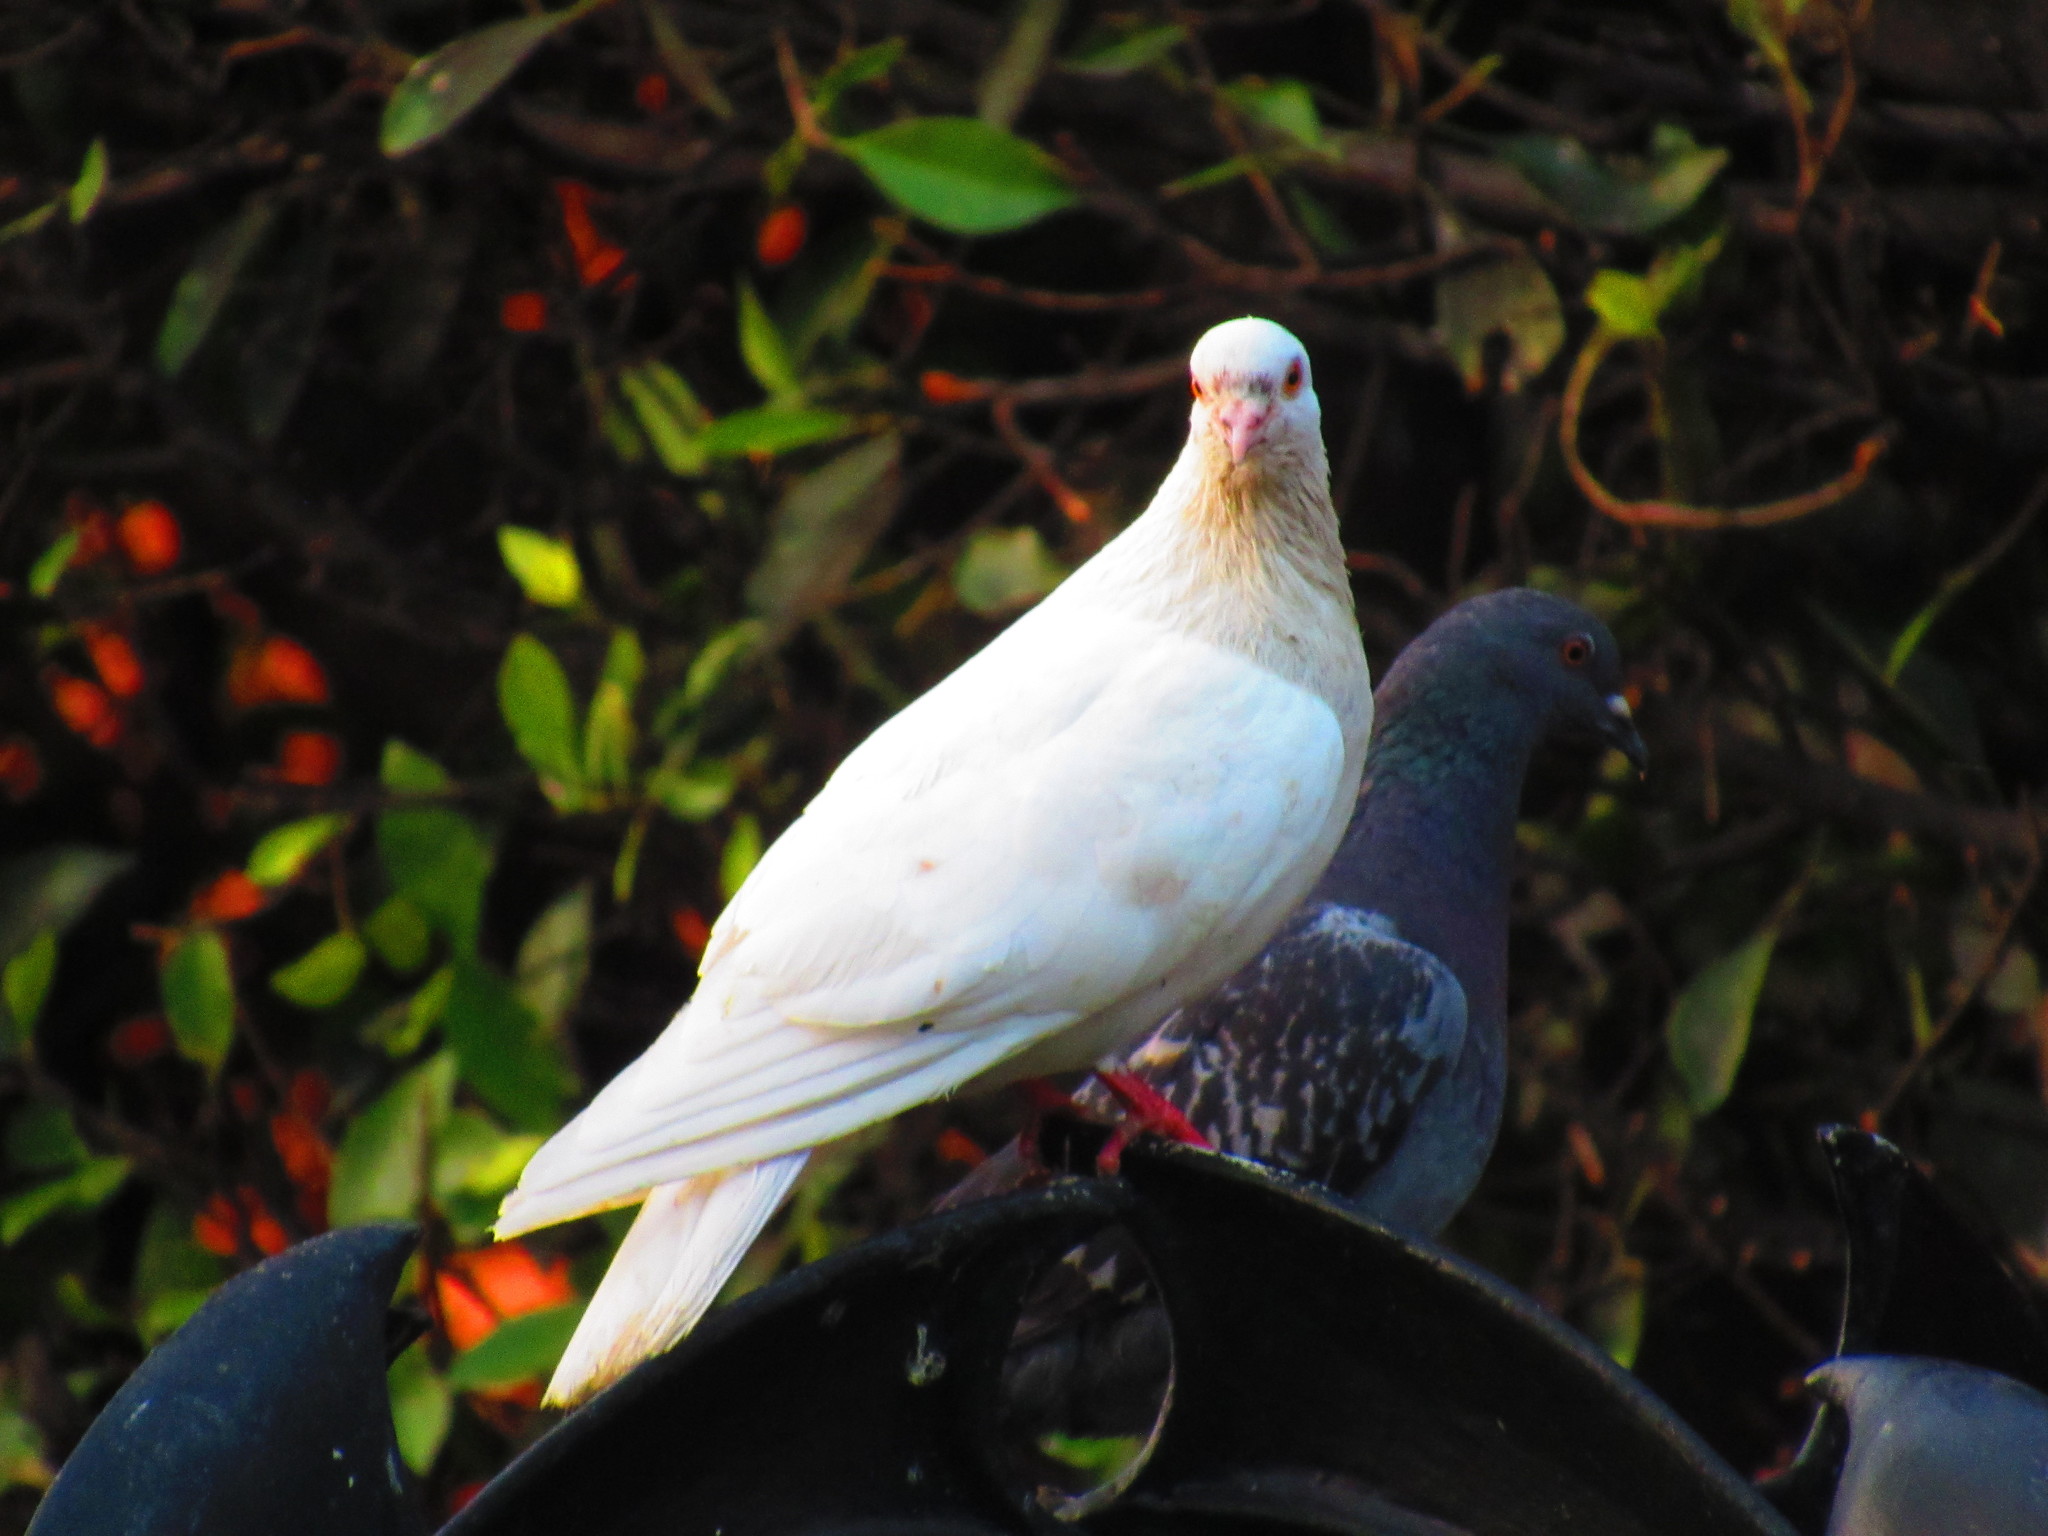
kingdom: Animalia
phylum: Chordata
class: Aves
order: Columbiformes
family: Columbidae
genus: Columba
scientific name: Columba livia
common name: Rock pigeon
